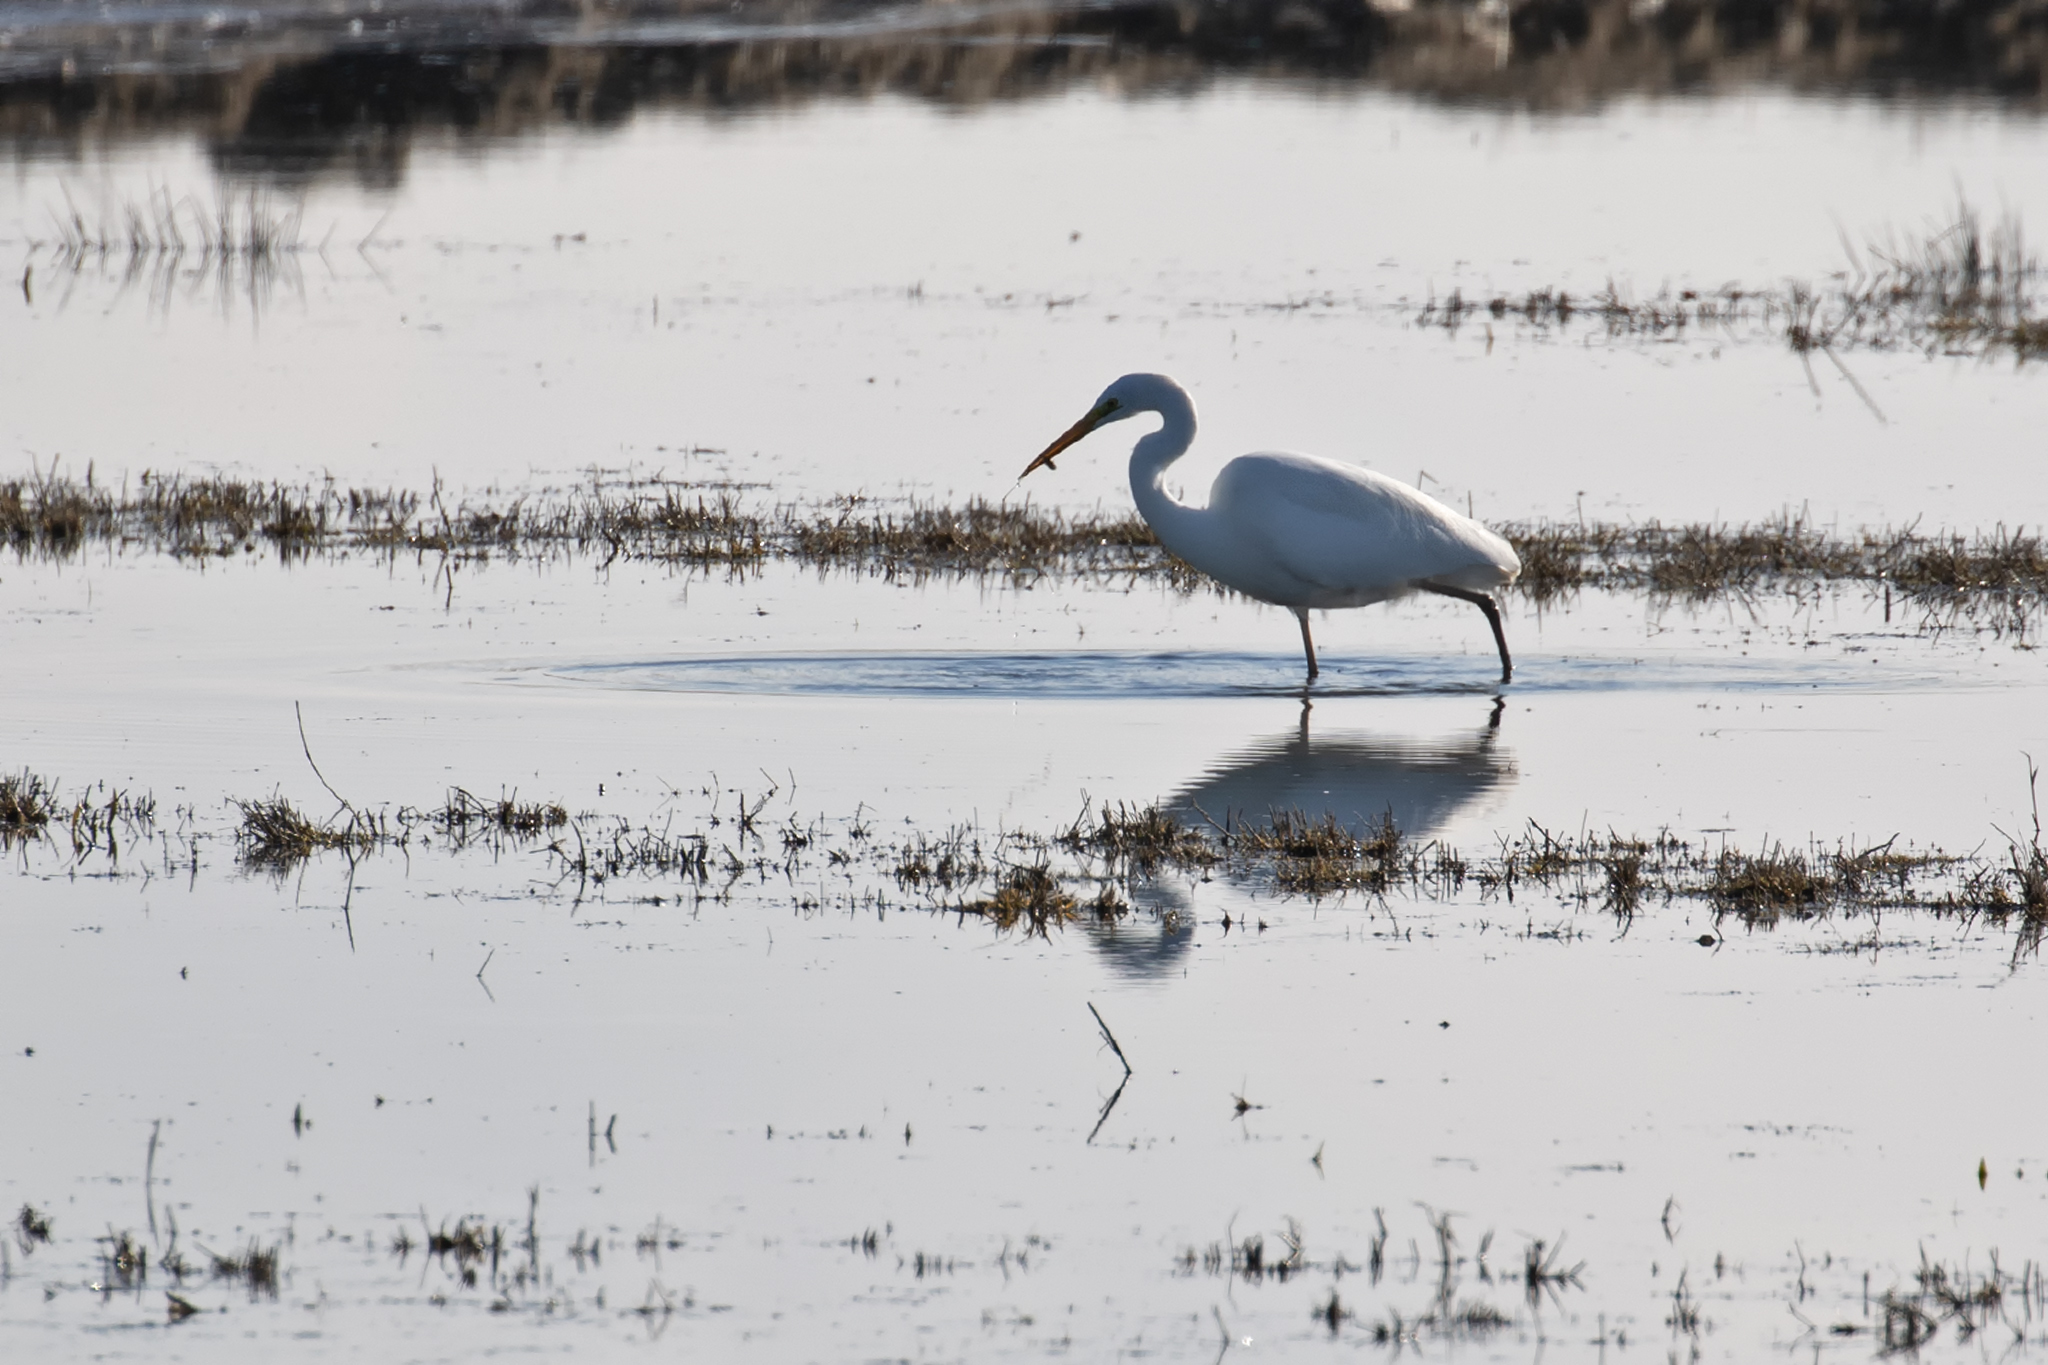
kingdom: Animalia
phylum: Chordata
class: Aves
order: Pelecaniformes
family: Ardeidae
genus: Ardea
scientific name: Ardea alba
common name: Great egret
